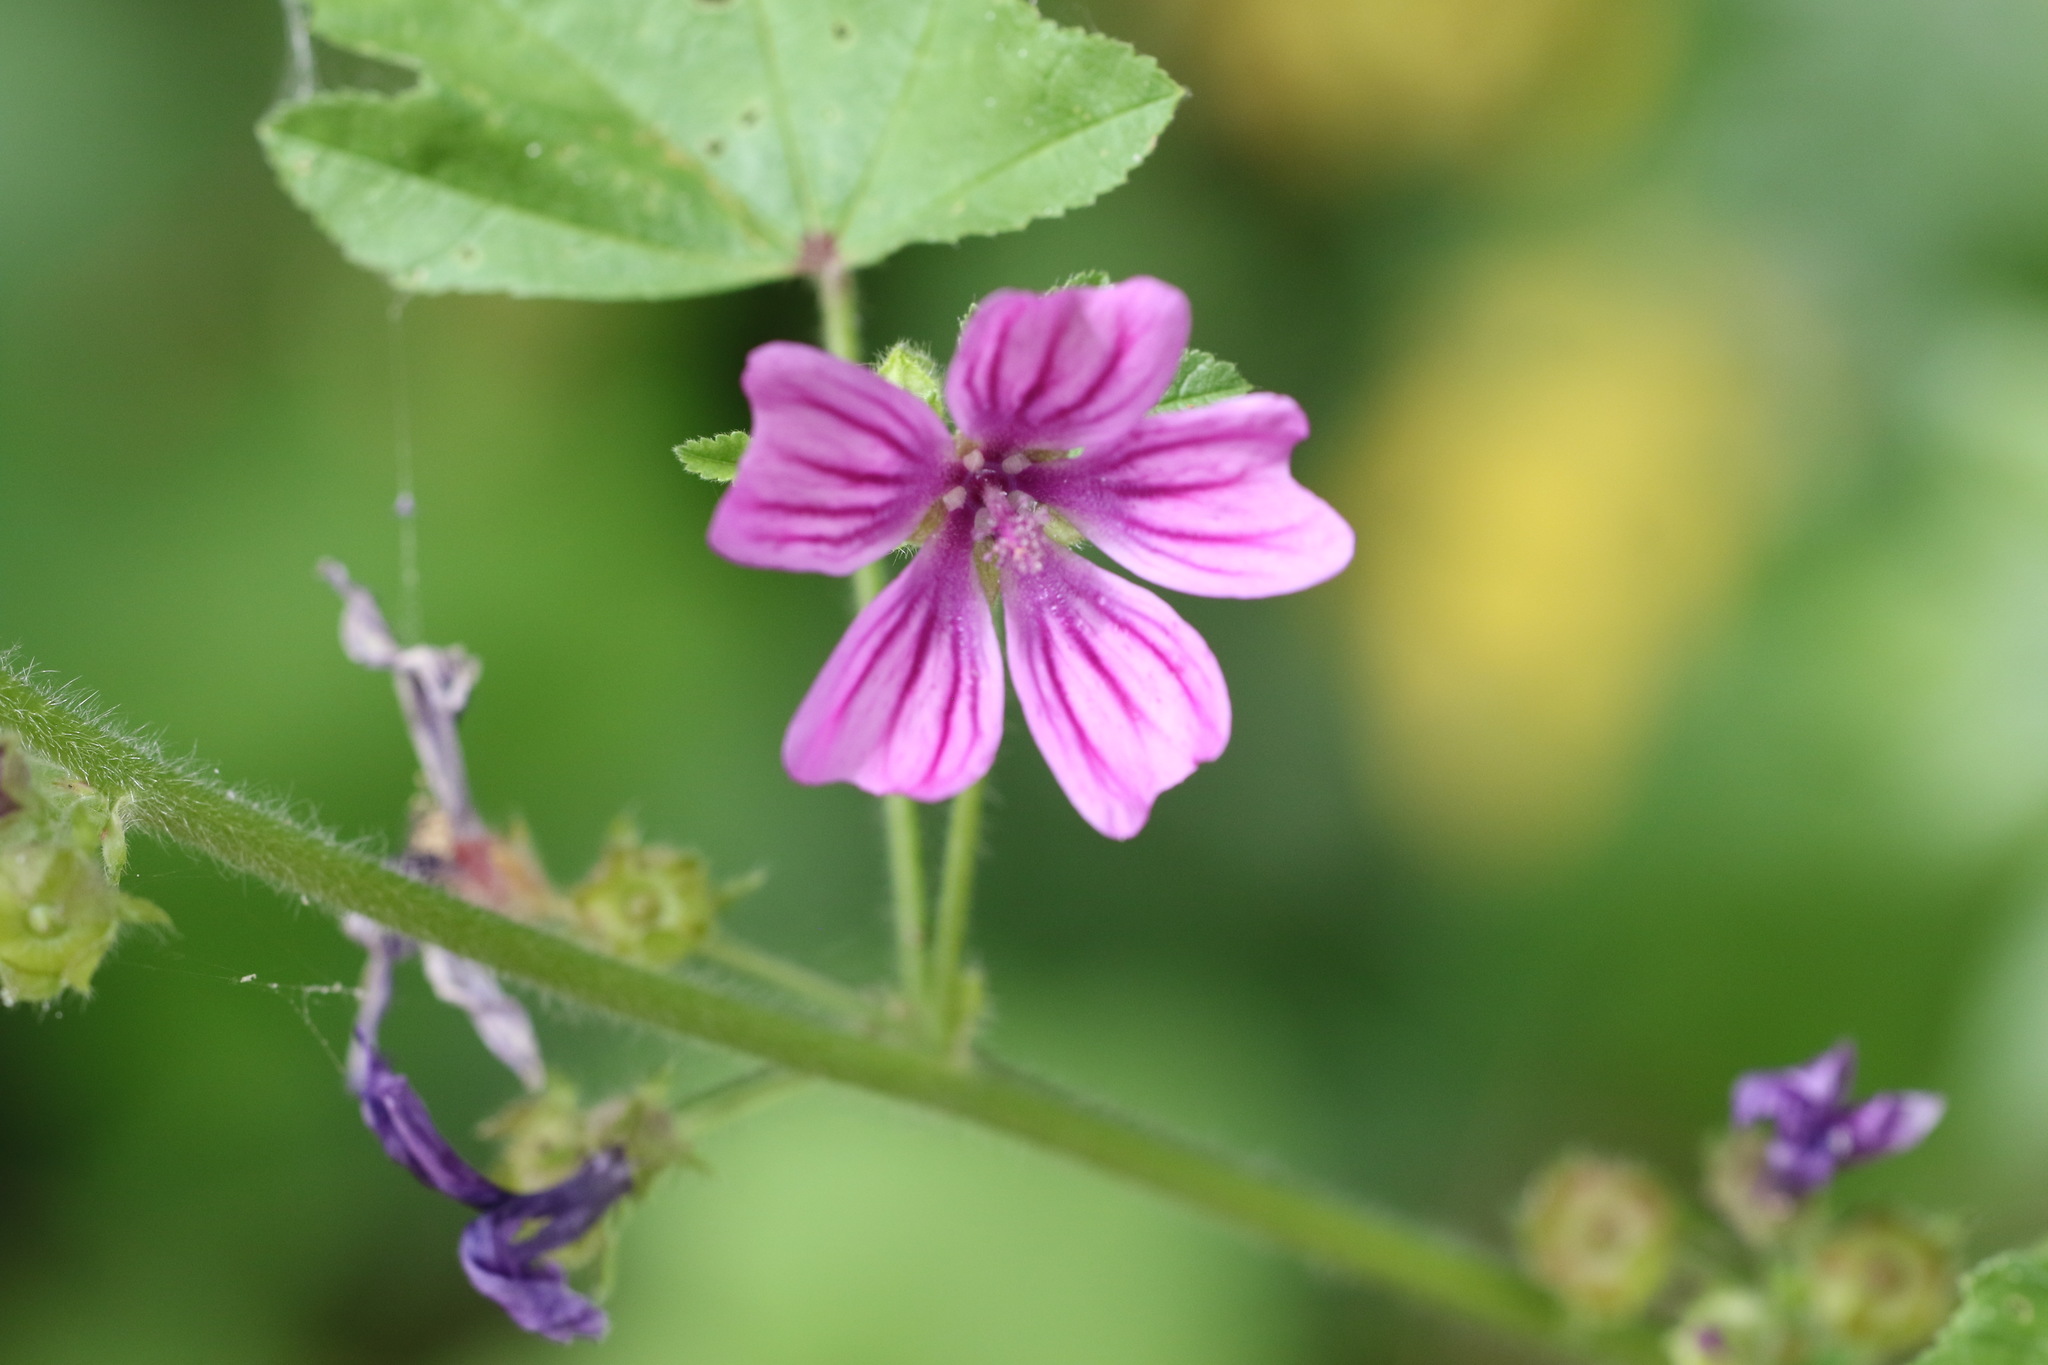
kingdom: Plantae
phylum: Tracheophyta
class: Magnoliopsida
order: Malvales
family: Malvaceae
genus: Malva
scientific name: Malva sylvestris
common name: Common mallow
